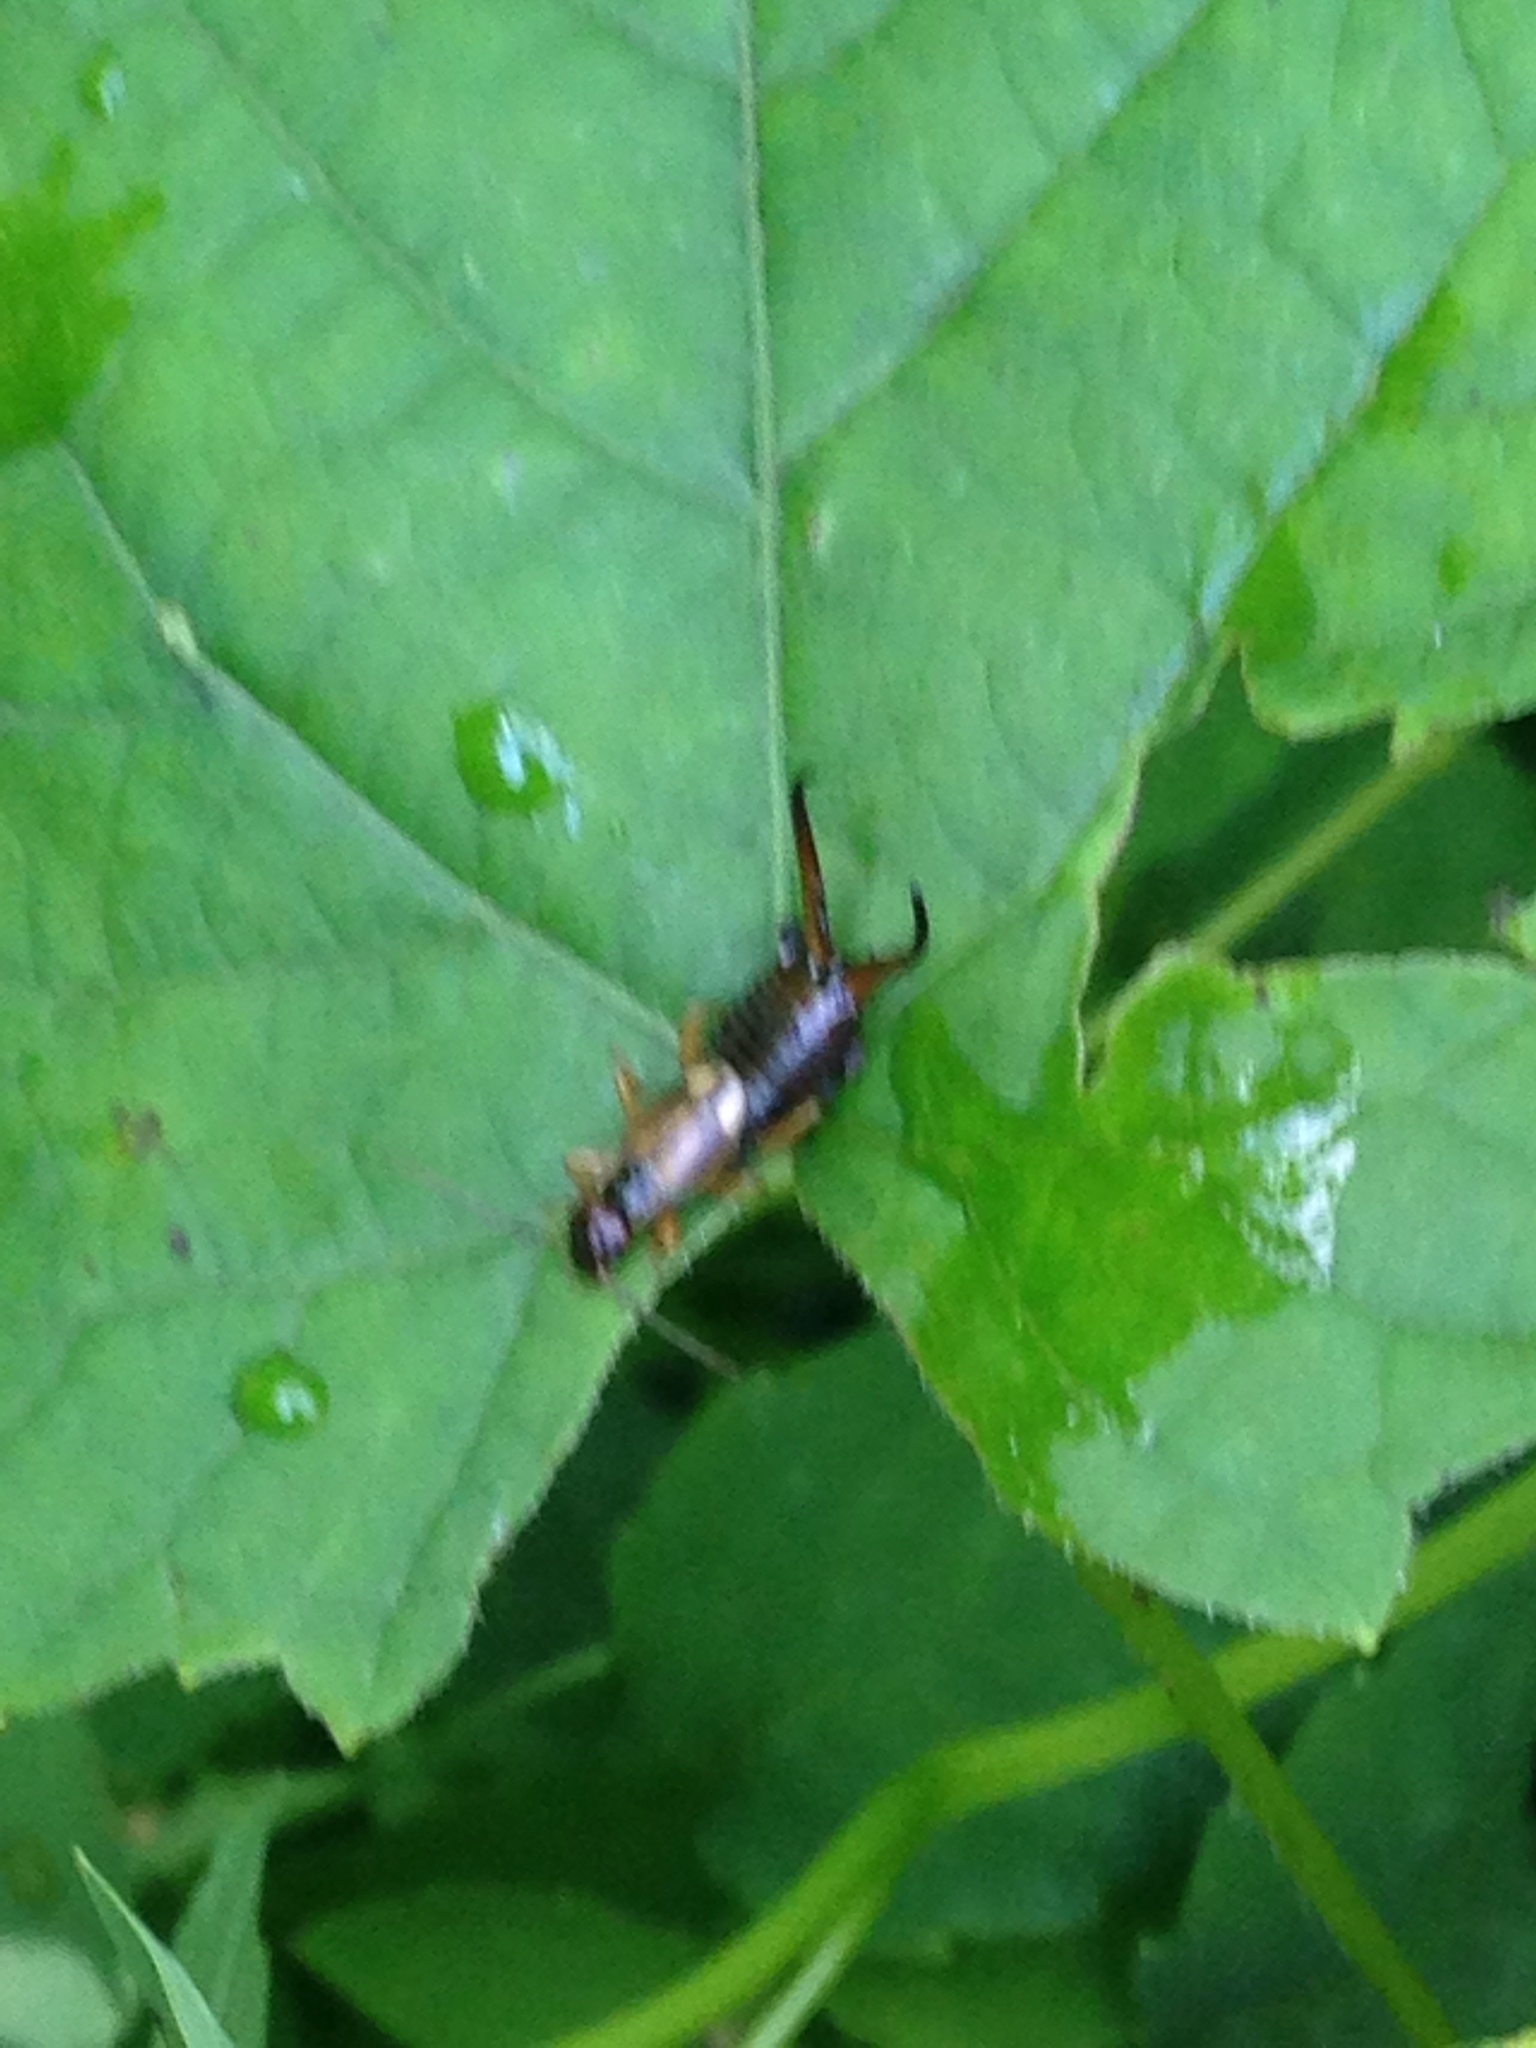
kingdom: Animalia
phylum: Arthropoda
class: Insecta
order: Dermaptera
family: Forficulidae
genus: Forficula
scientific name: Forficula
